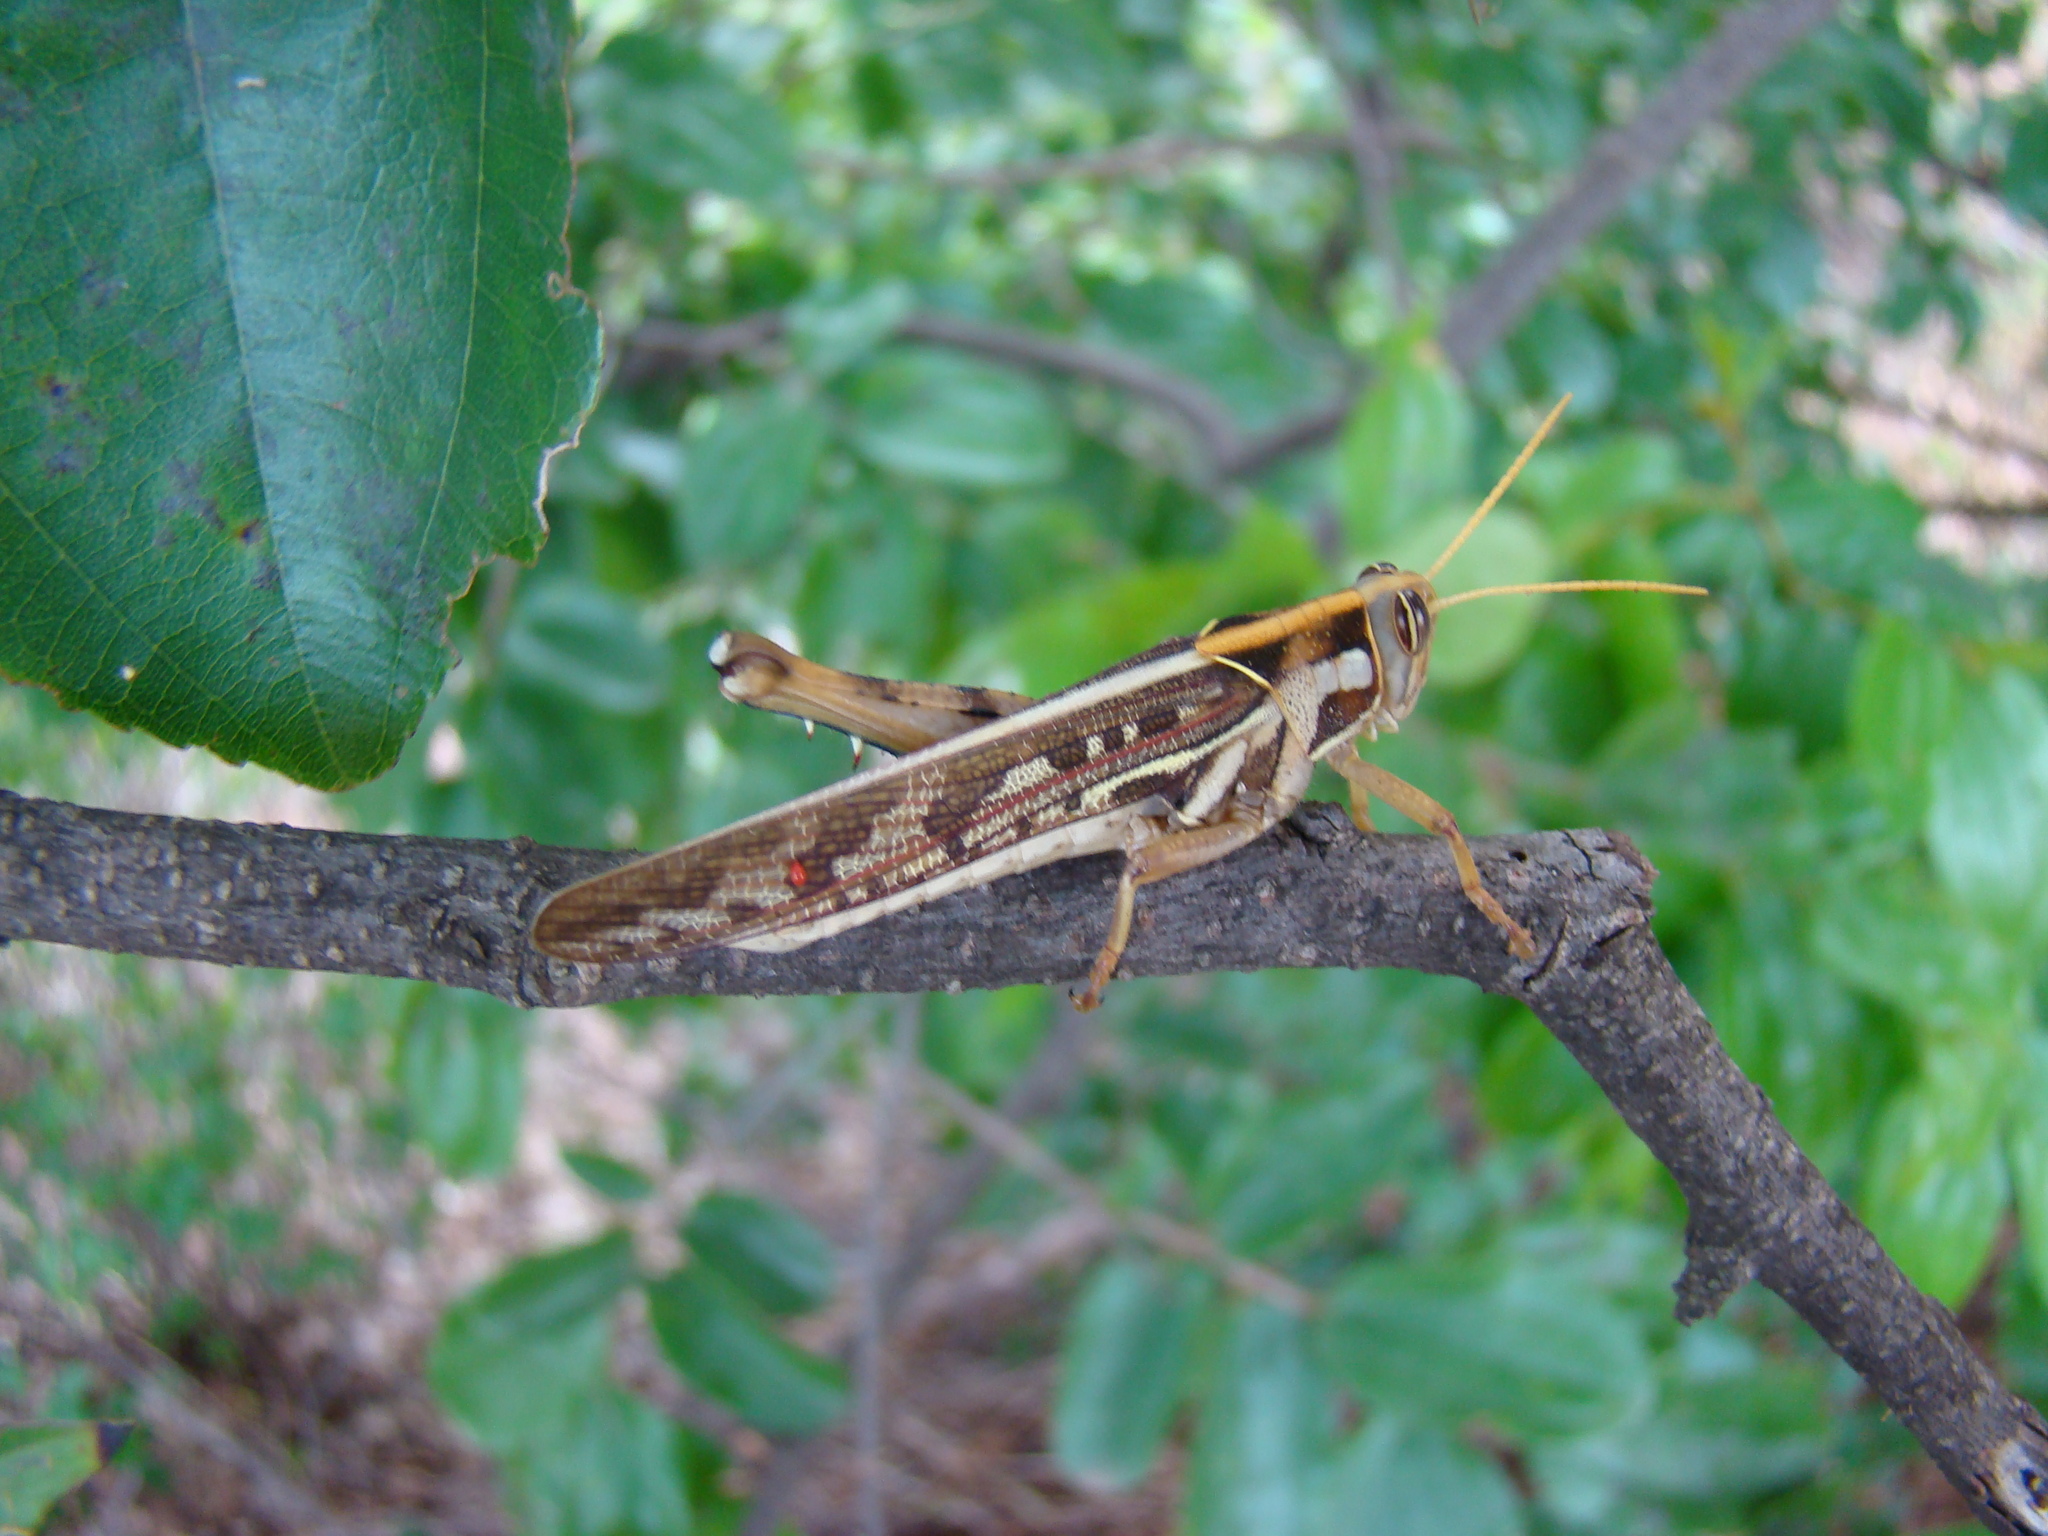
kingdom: Animalia
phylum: Arthropoda
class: Insecta
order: Orthoptera
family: Acrididae
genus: Cyrtacanthacris
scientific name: Cyrtacanthacris tatarica
